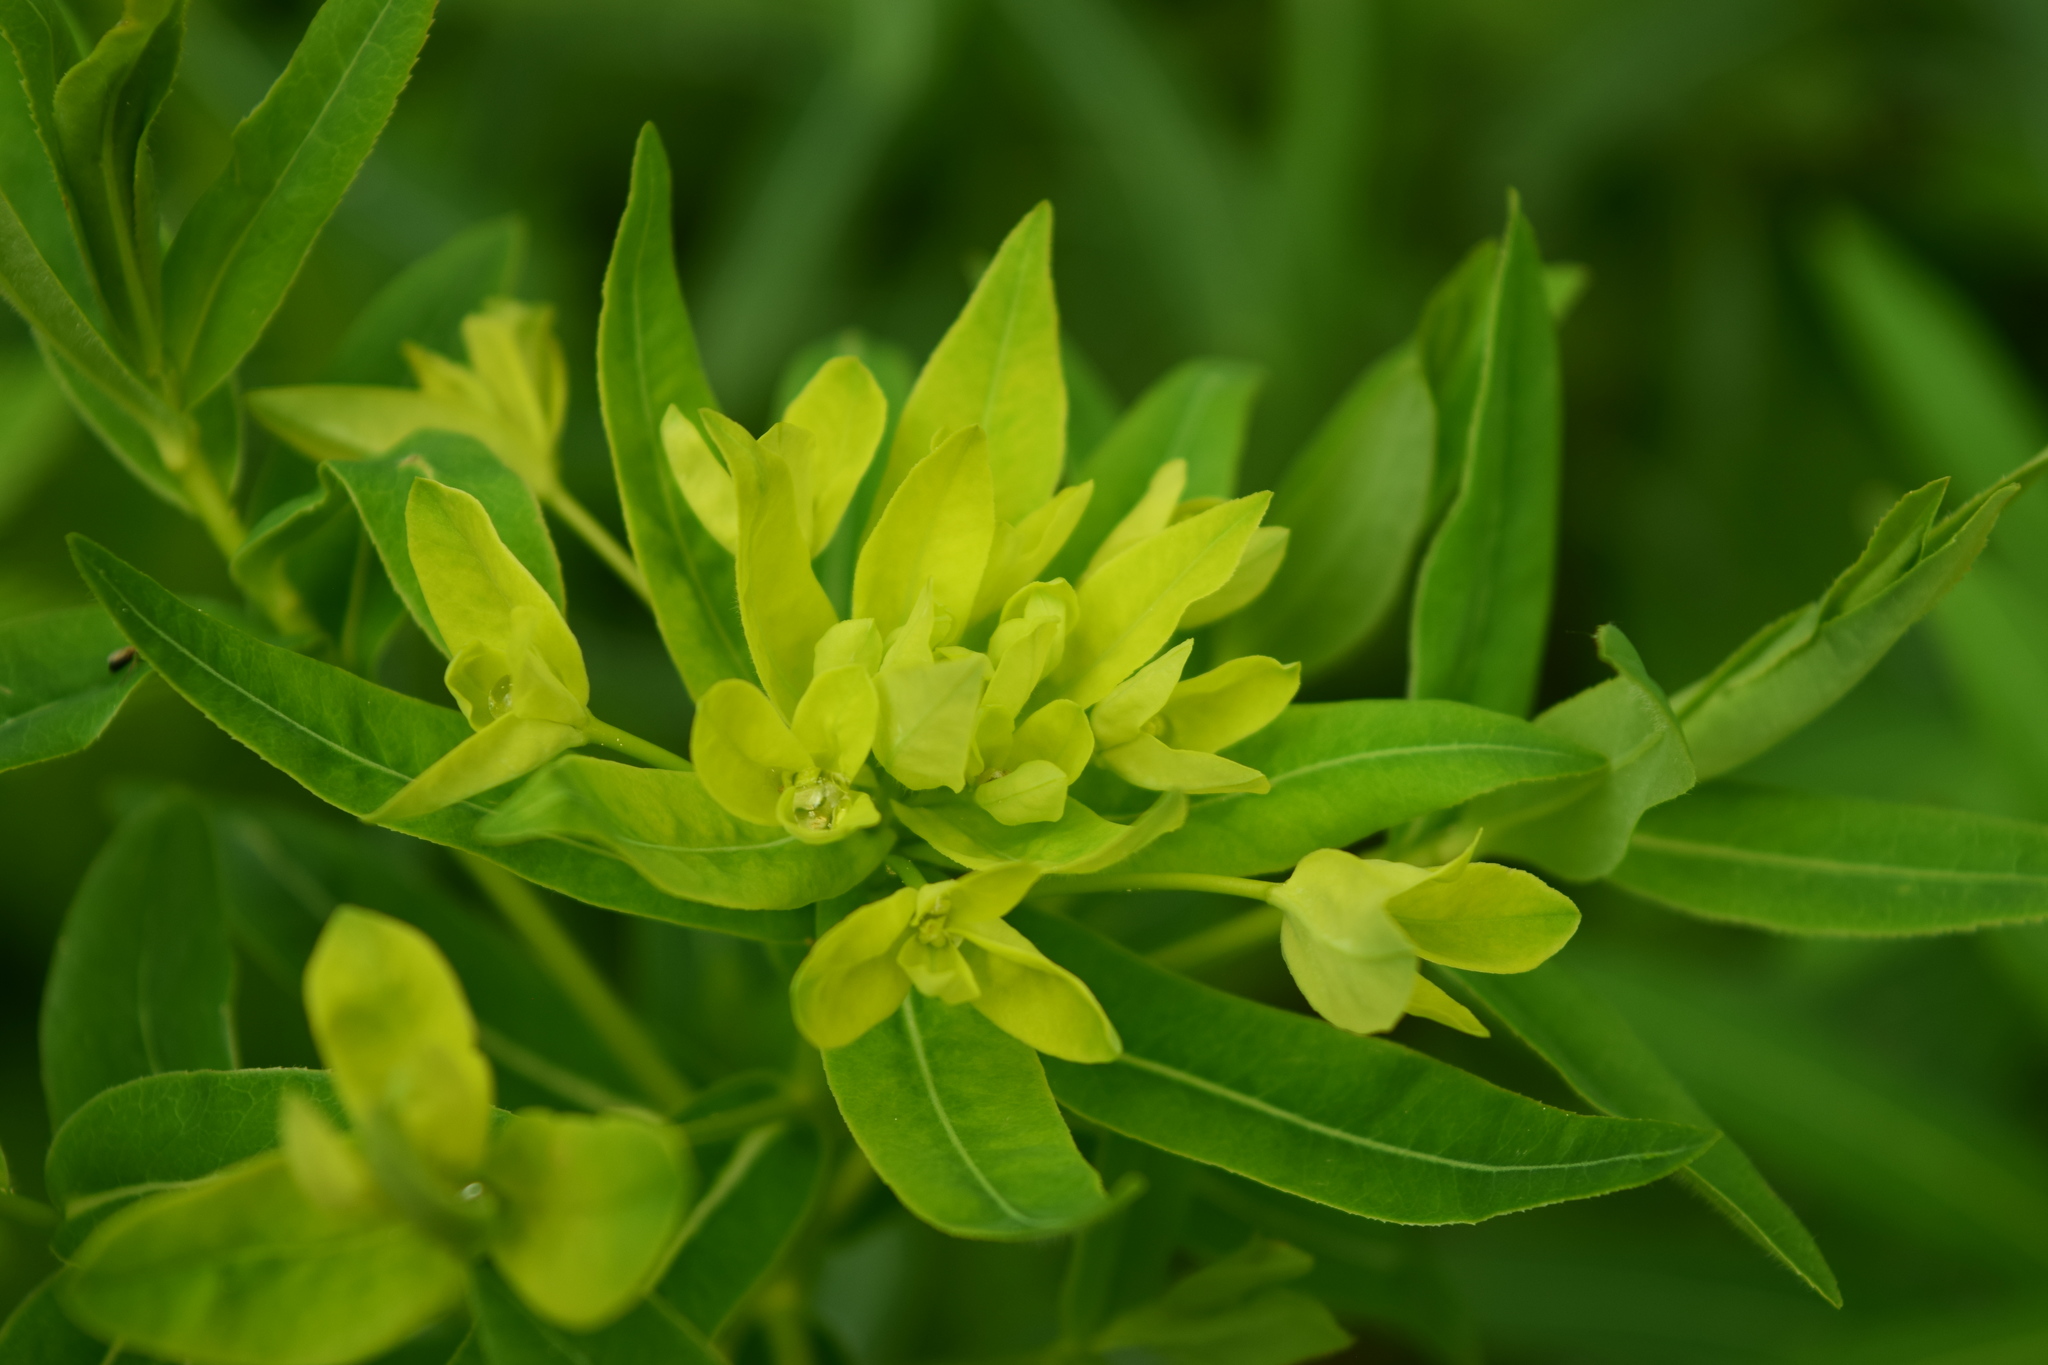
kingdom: Plantae
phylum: Tracheophyta
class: Magnoliopsida
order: Malpighiales
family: Euphorbiaceae
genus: Euphorbia
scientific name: Euphorbia semivillosa
